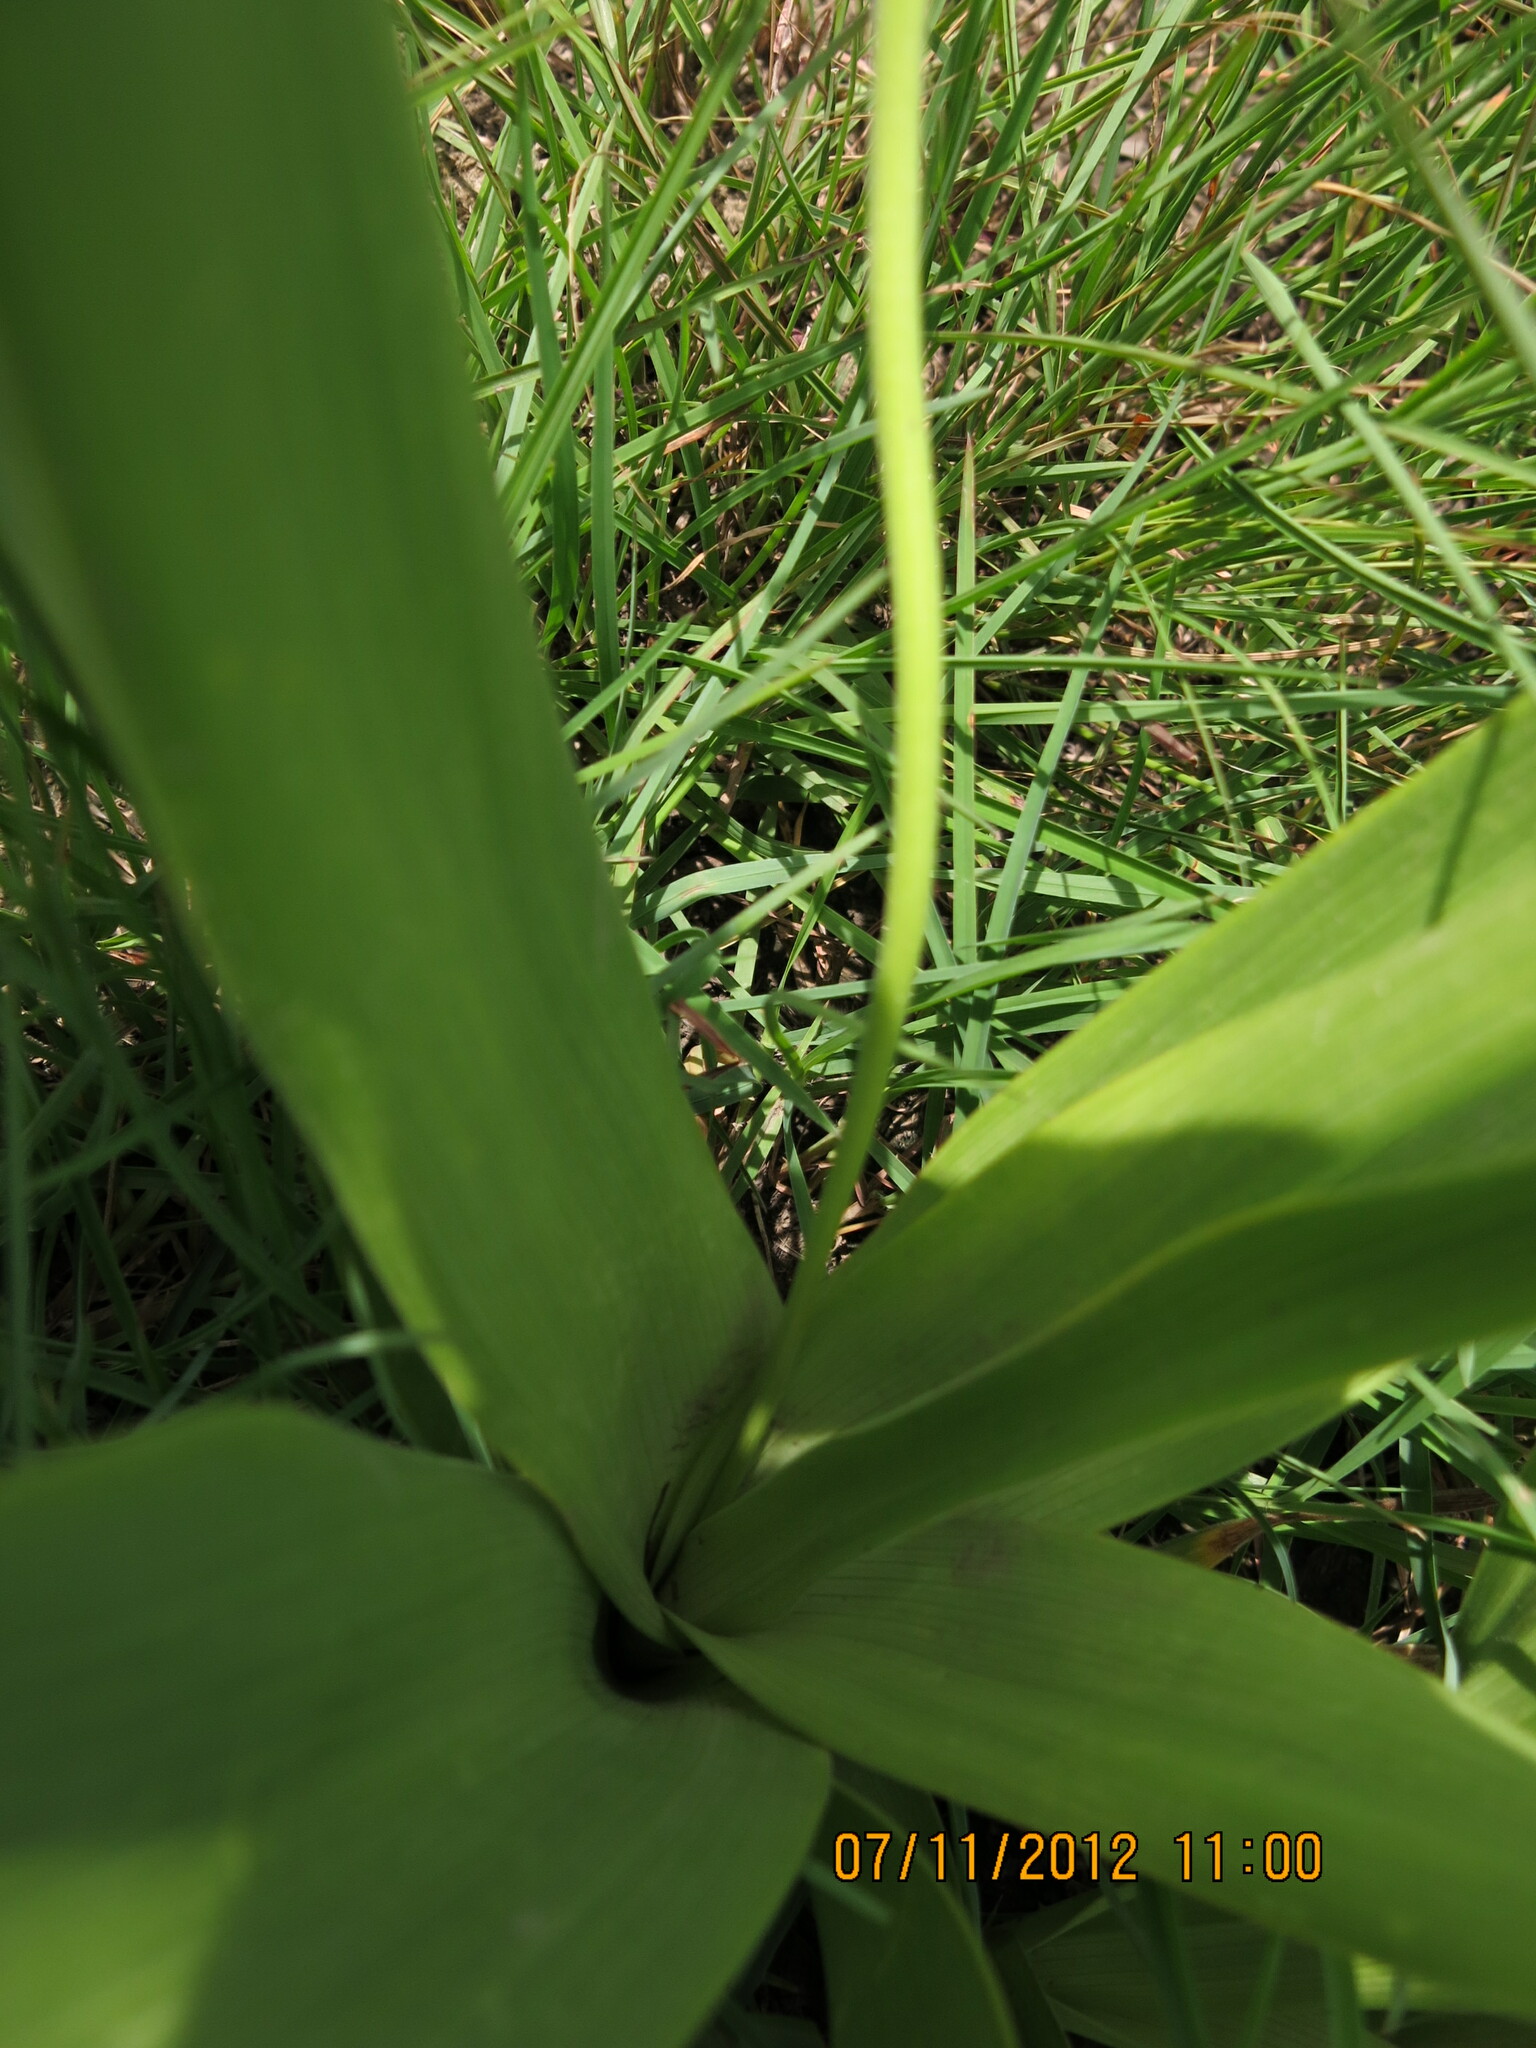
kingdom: Plantae
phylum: Tracheophyta
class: Liliopsida
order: Asparagales
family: Asparagaceae
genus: Schizocarphus
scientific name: Schizocarphus nervosus
